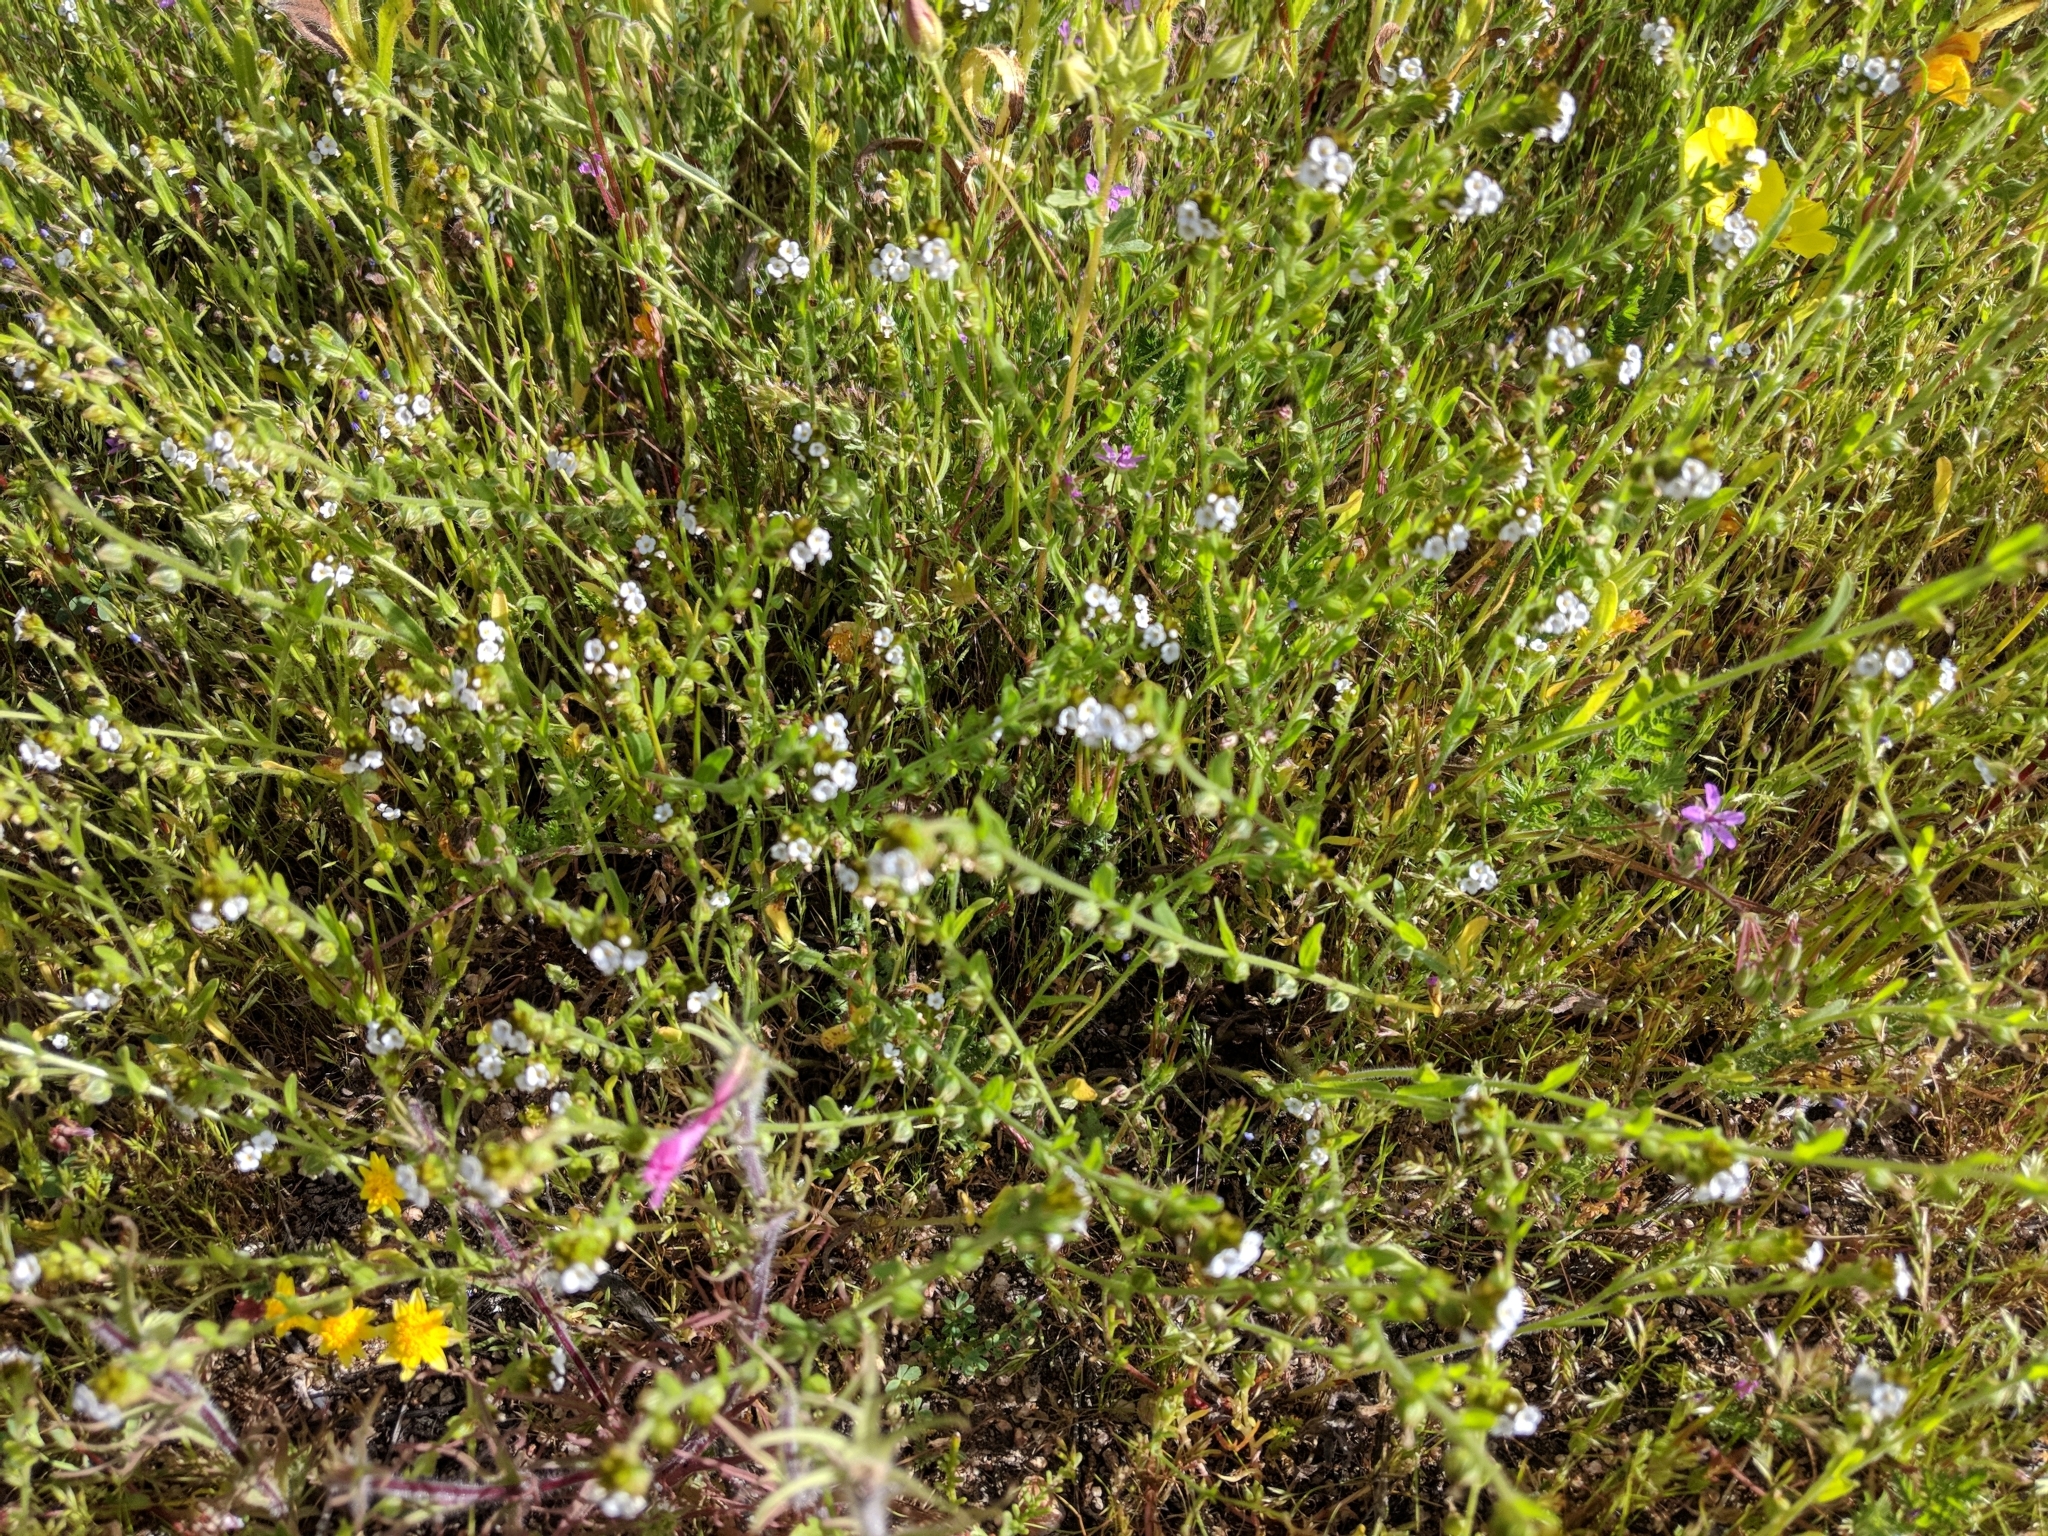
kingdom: Plantae
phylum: Tracheophyta
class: Magnoliopsida
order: Boraginales
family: Boraginaceae
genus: Plagiobothrys
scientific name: Plagiobothrys canescens
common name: Valley popcorn-flower
